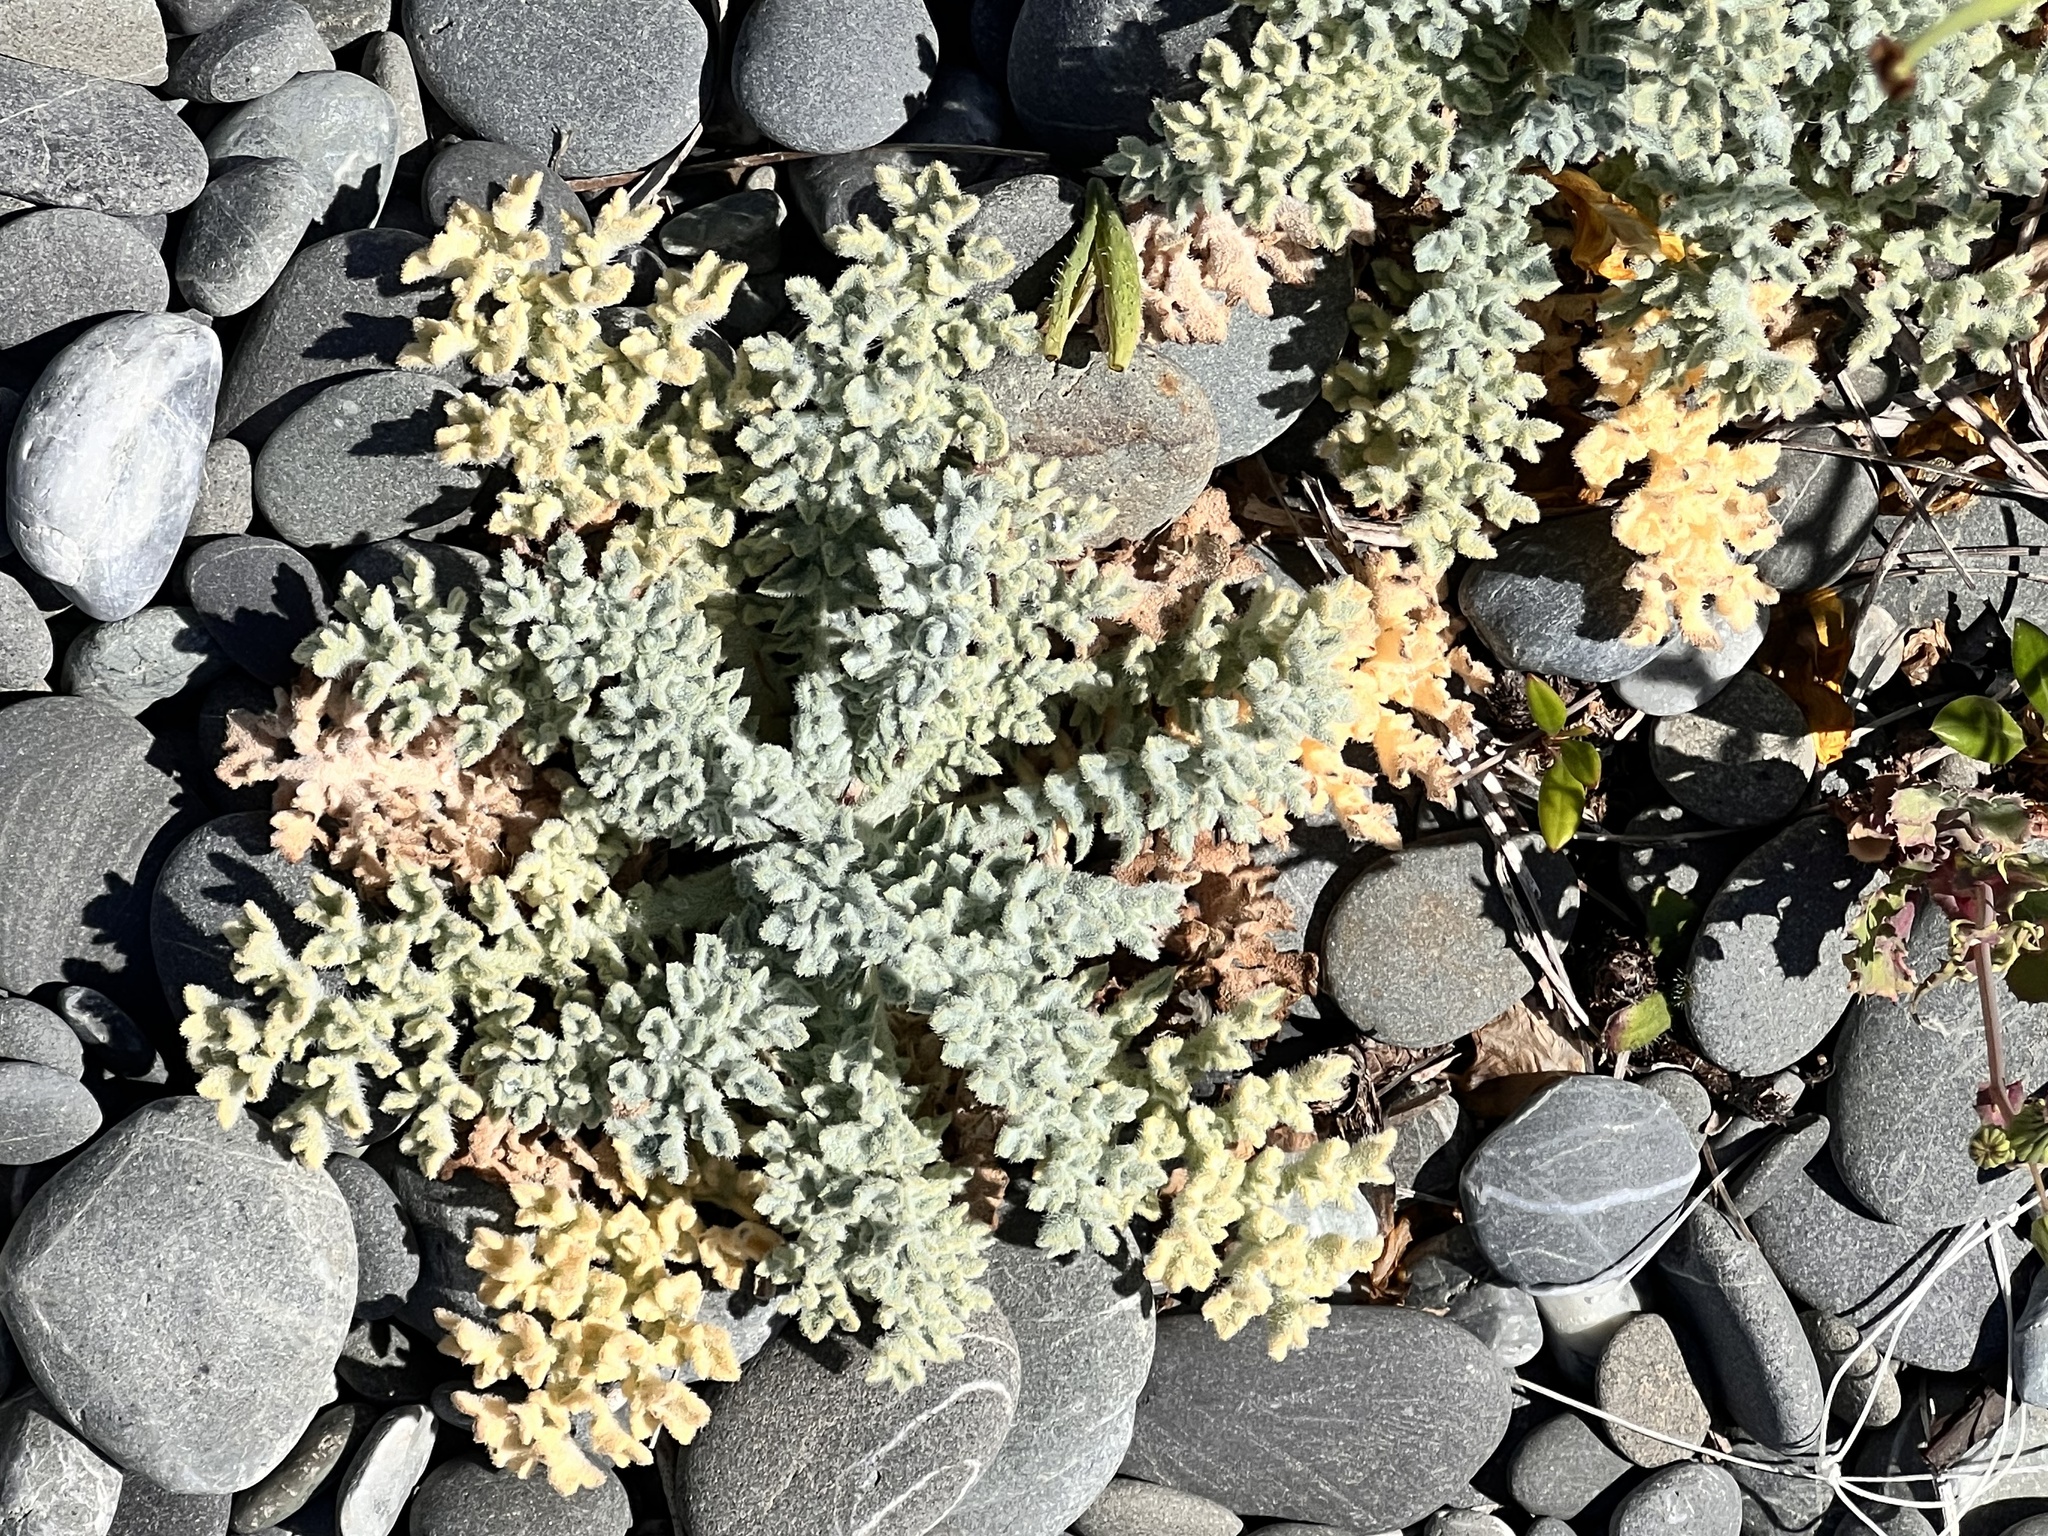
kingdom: Plantae
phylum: Tracheophyta
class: Magnoliopsida
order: Ranunculales
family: Papaveraceae
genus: Glaucium
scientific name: Glaucium flavum
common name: Yellow horned-poppy
